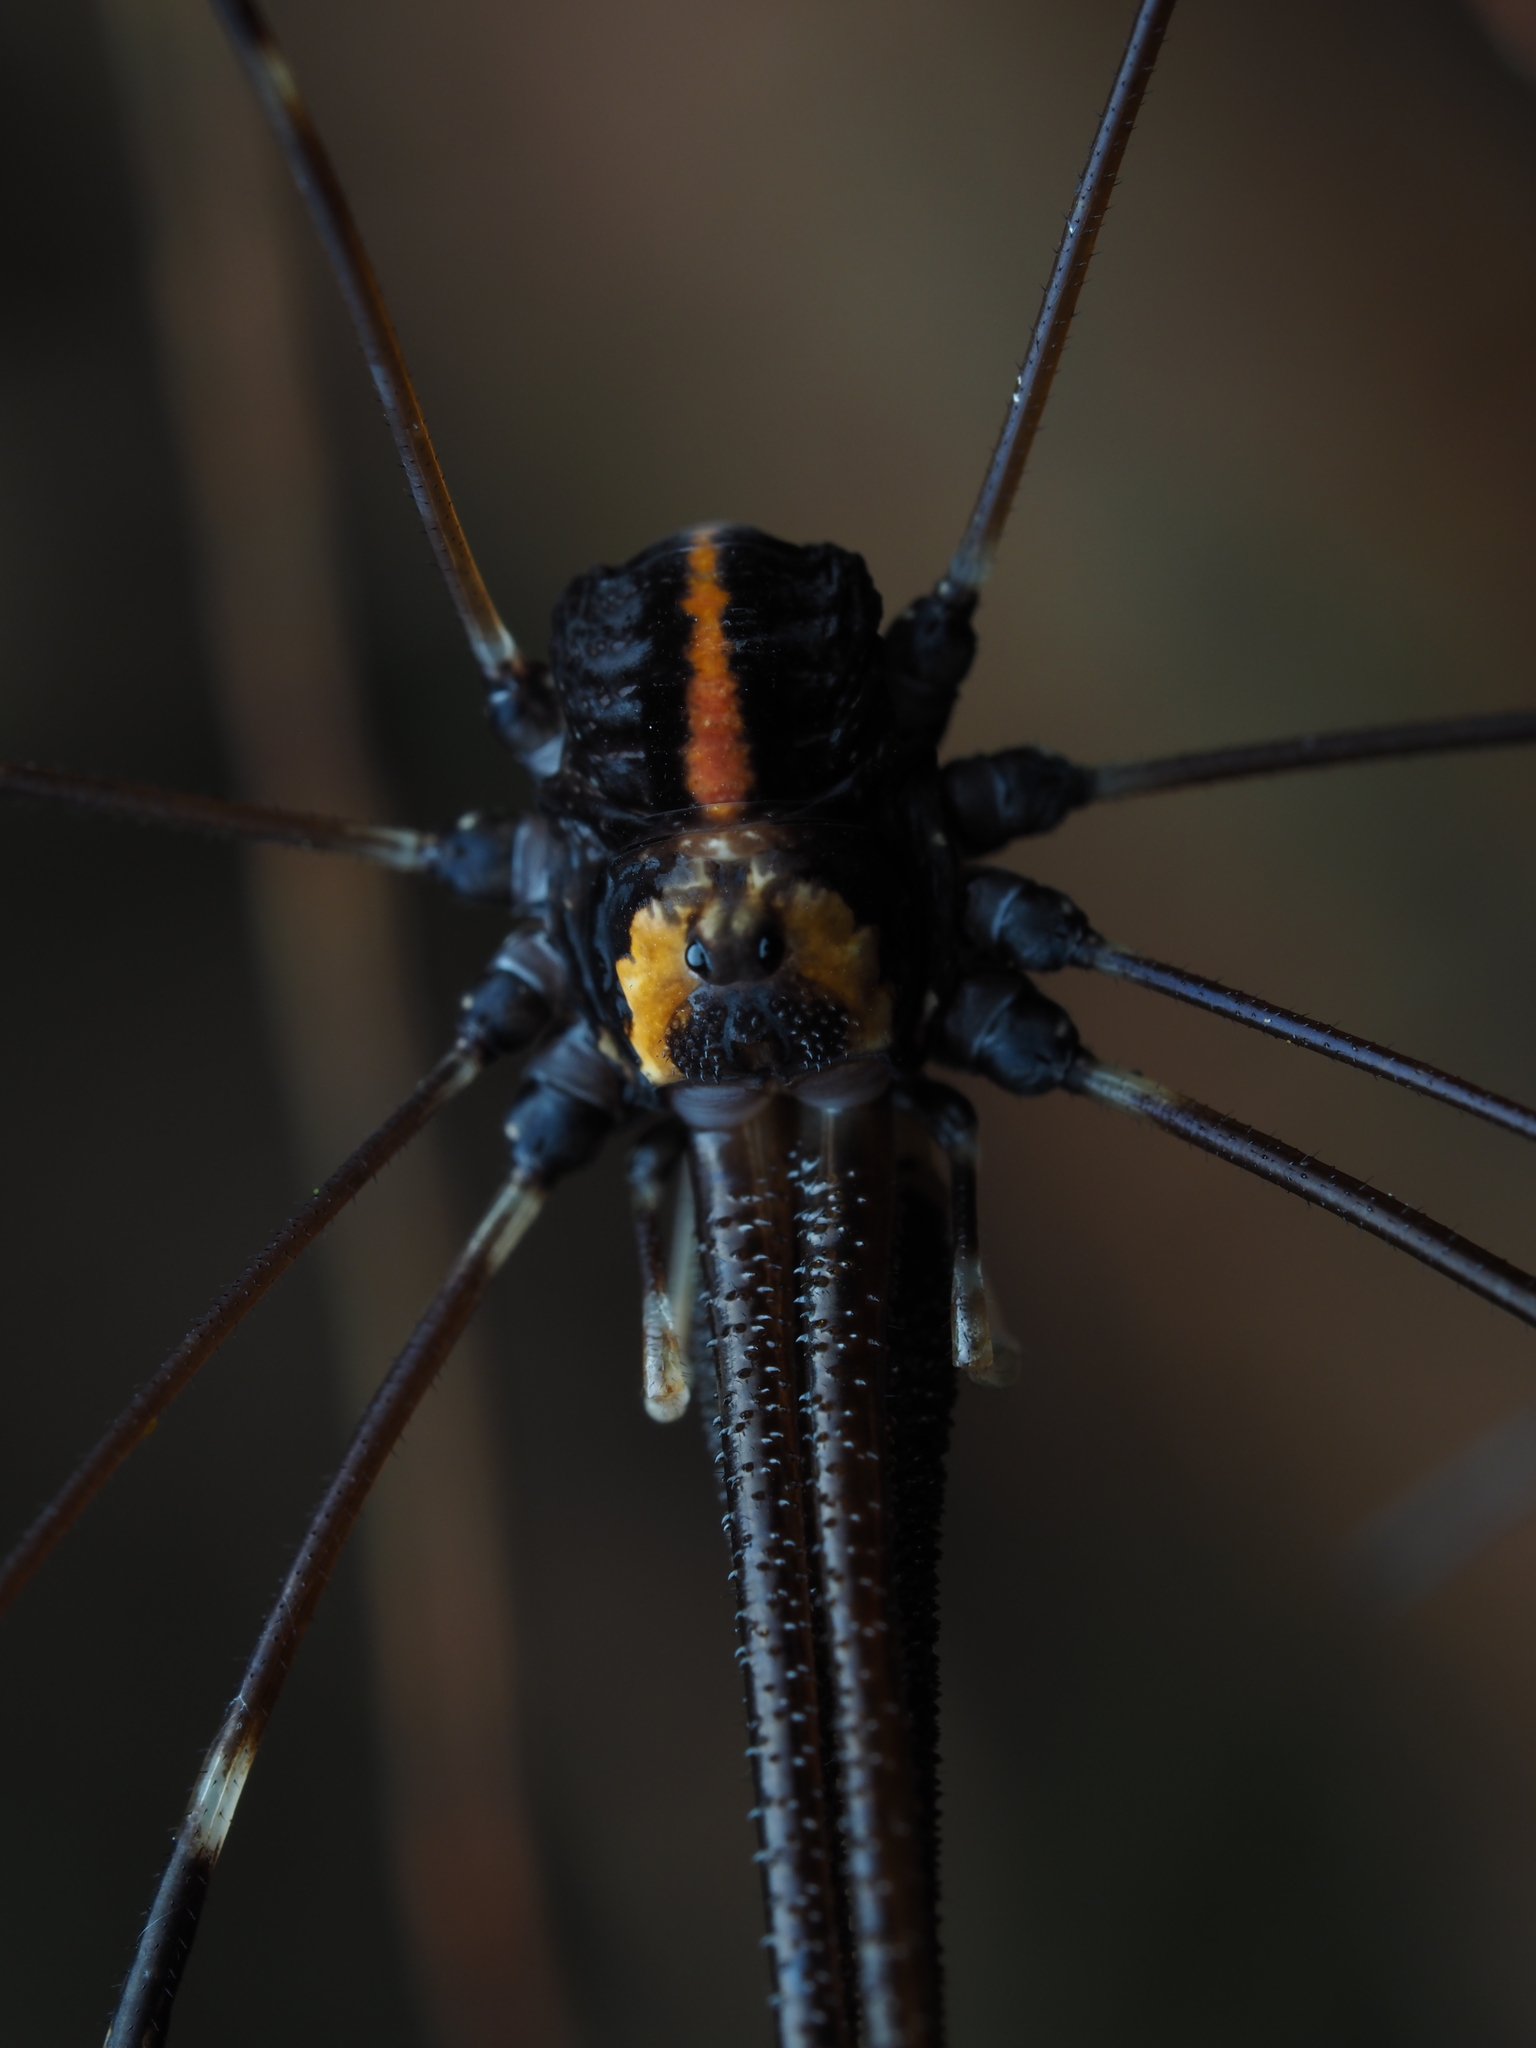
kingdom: Animalia
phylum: Arthropoda
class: Arachnida
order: Opiliones
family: Neopilionidae
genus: Forsteropsalis
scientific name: Forsteropsalis pureora
